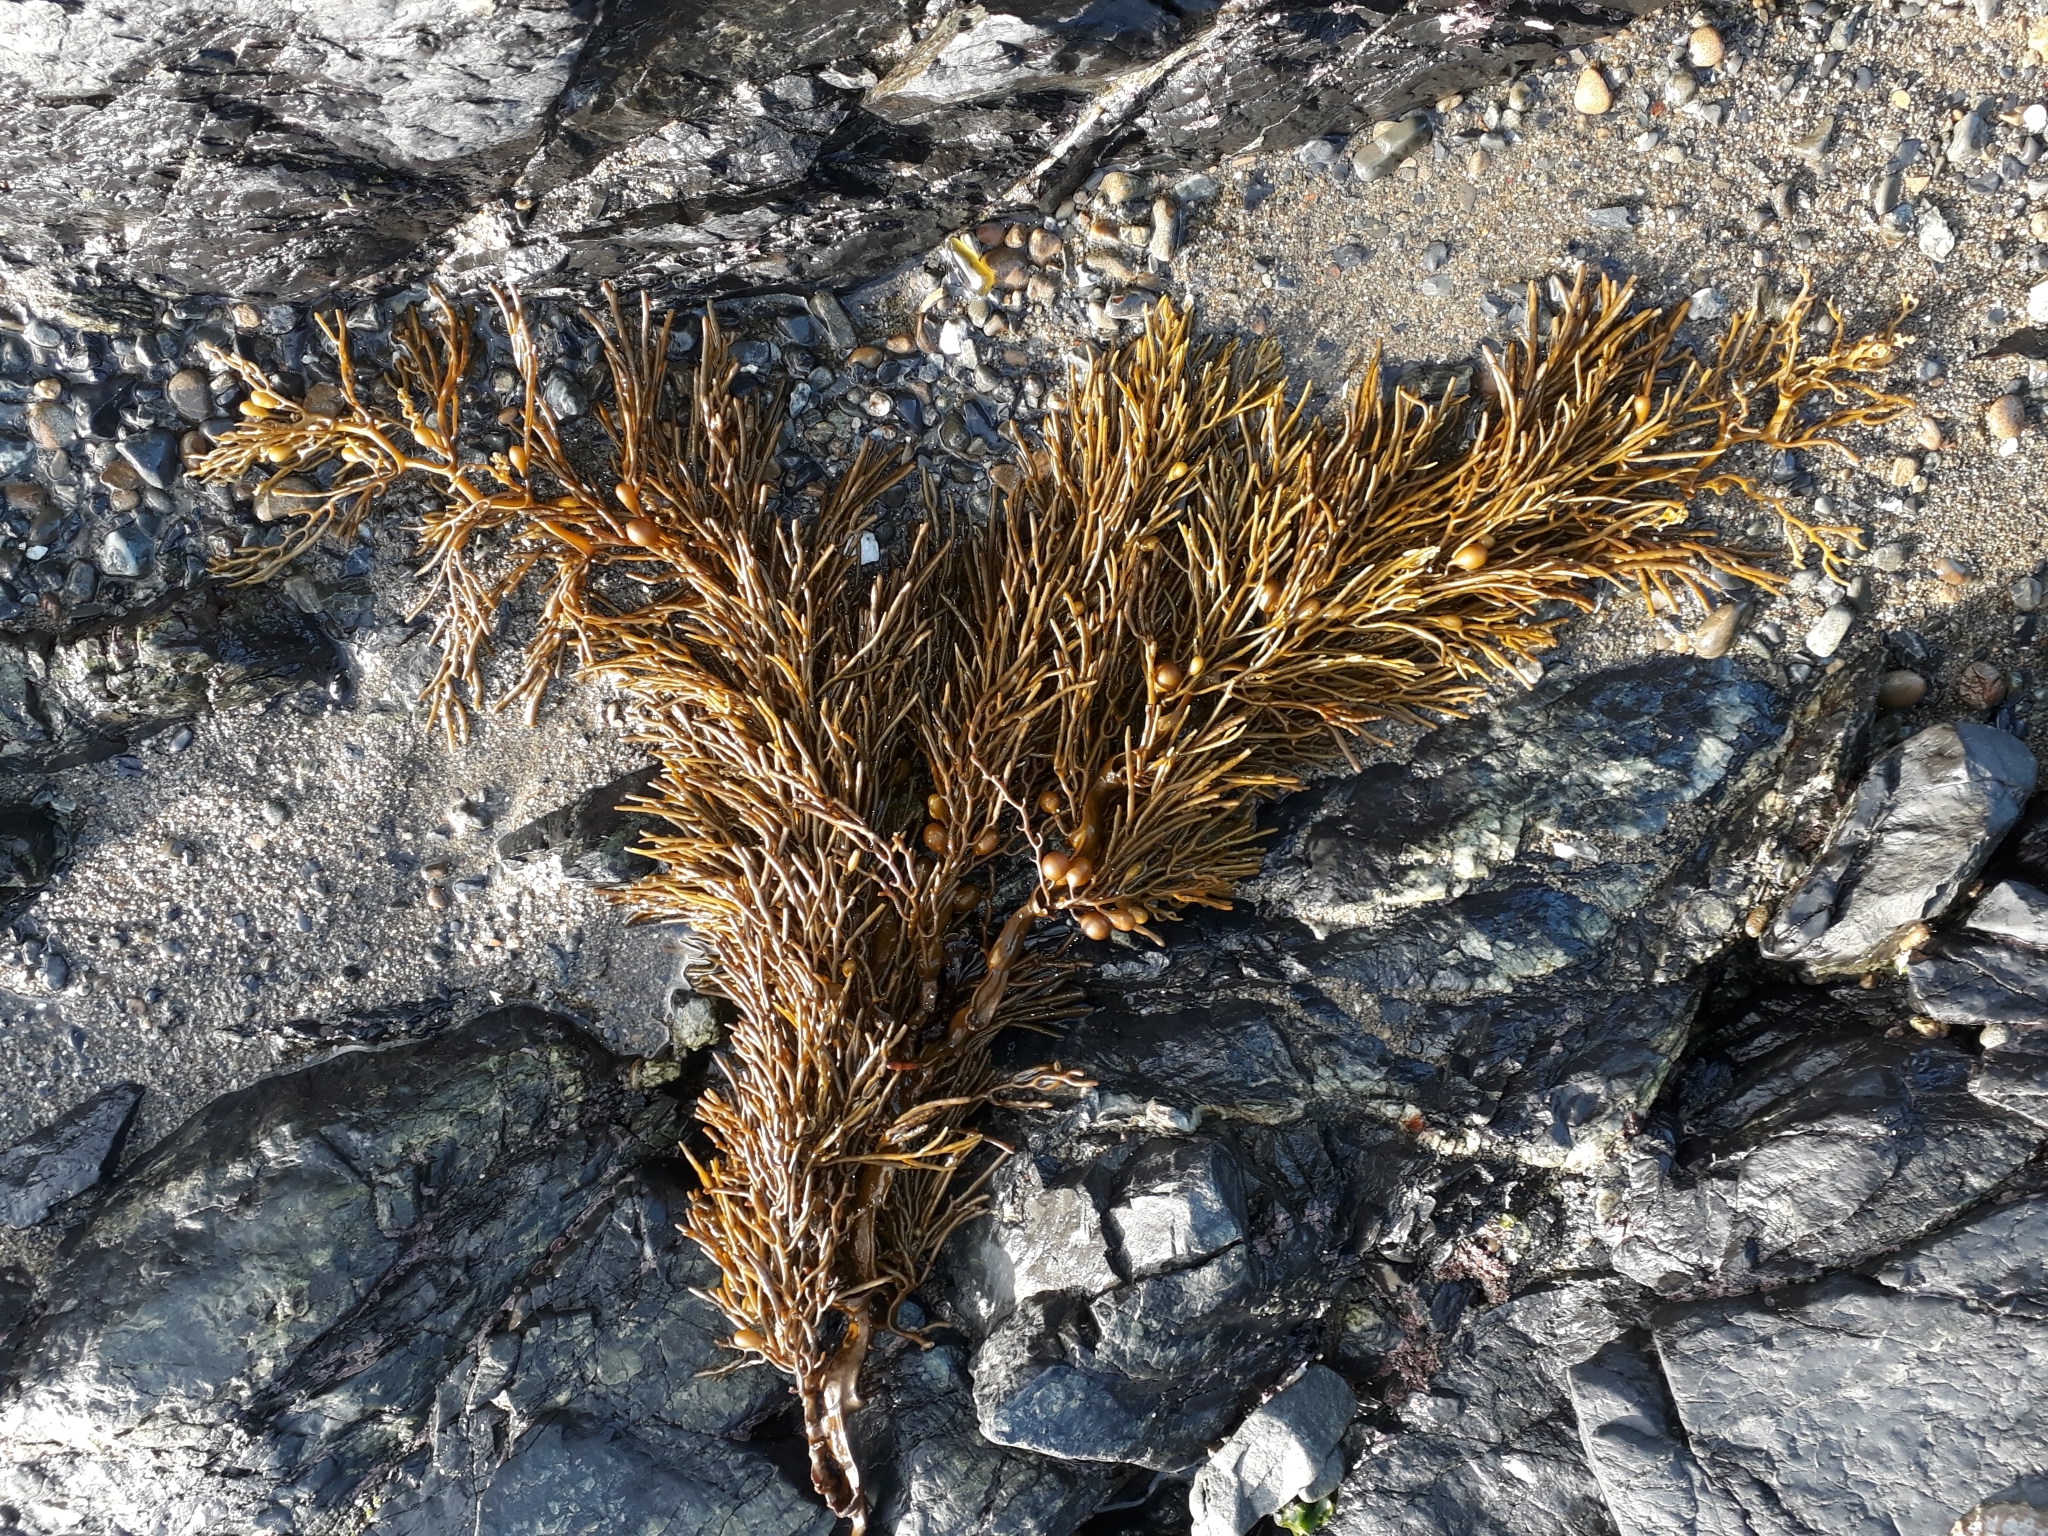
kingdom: Chromista
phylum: Ochrophyta
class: Phaeophyceae
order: Fucales
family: Sargassaceae
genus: Cystophora
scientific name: Cystophora retroflexa
